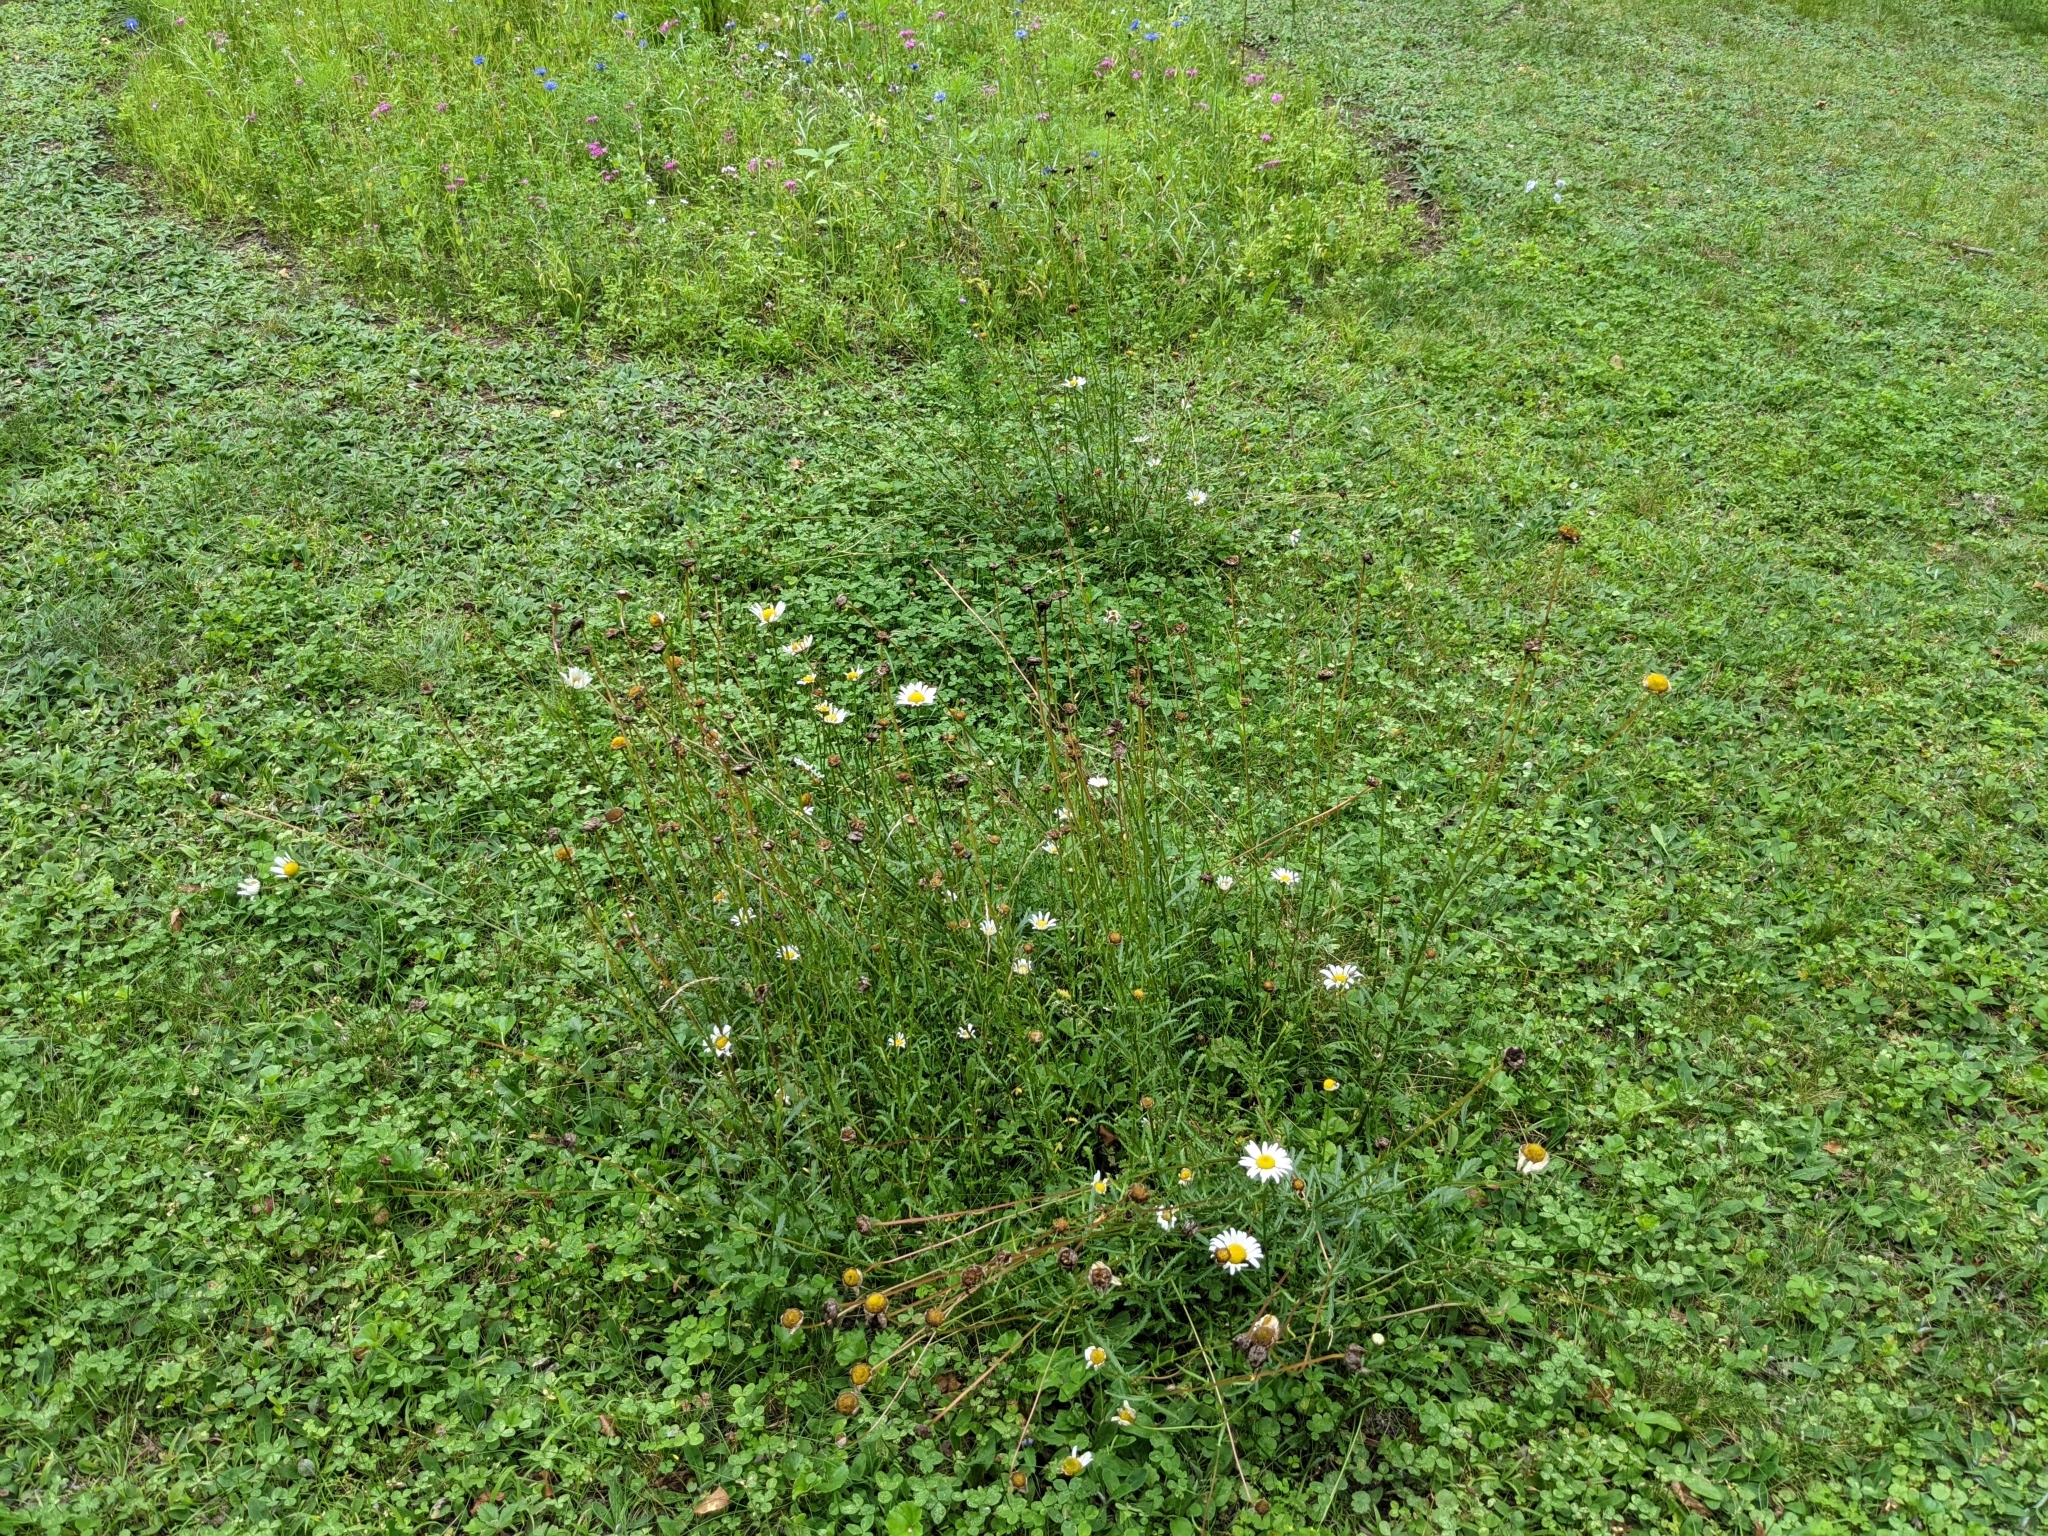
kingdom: Plantae
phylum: Tracheophyta
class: Magnoliopsida
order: Asterales
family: Asteraceae
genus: Leucanthemum
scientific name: Leucanthemum vulgare
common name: Oxeye daisy
